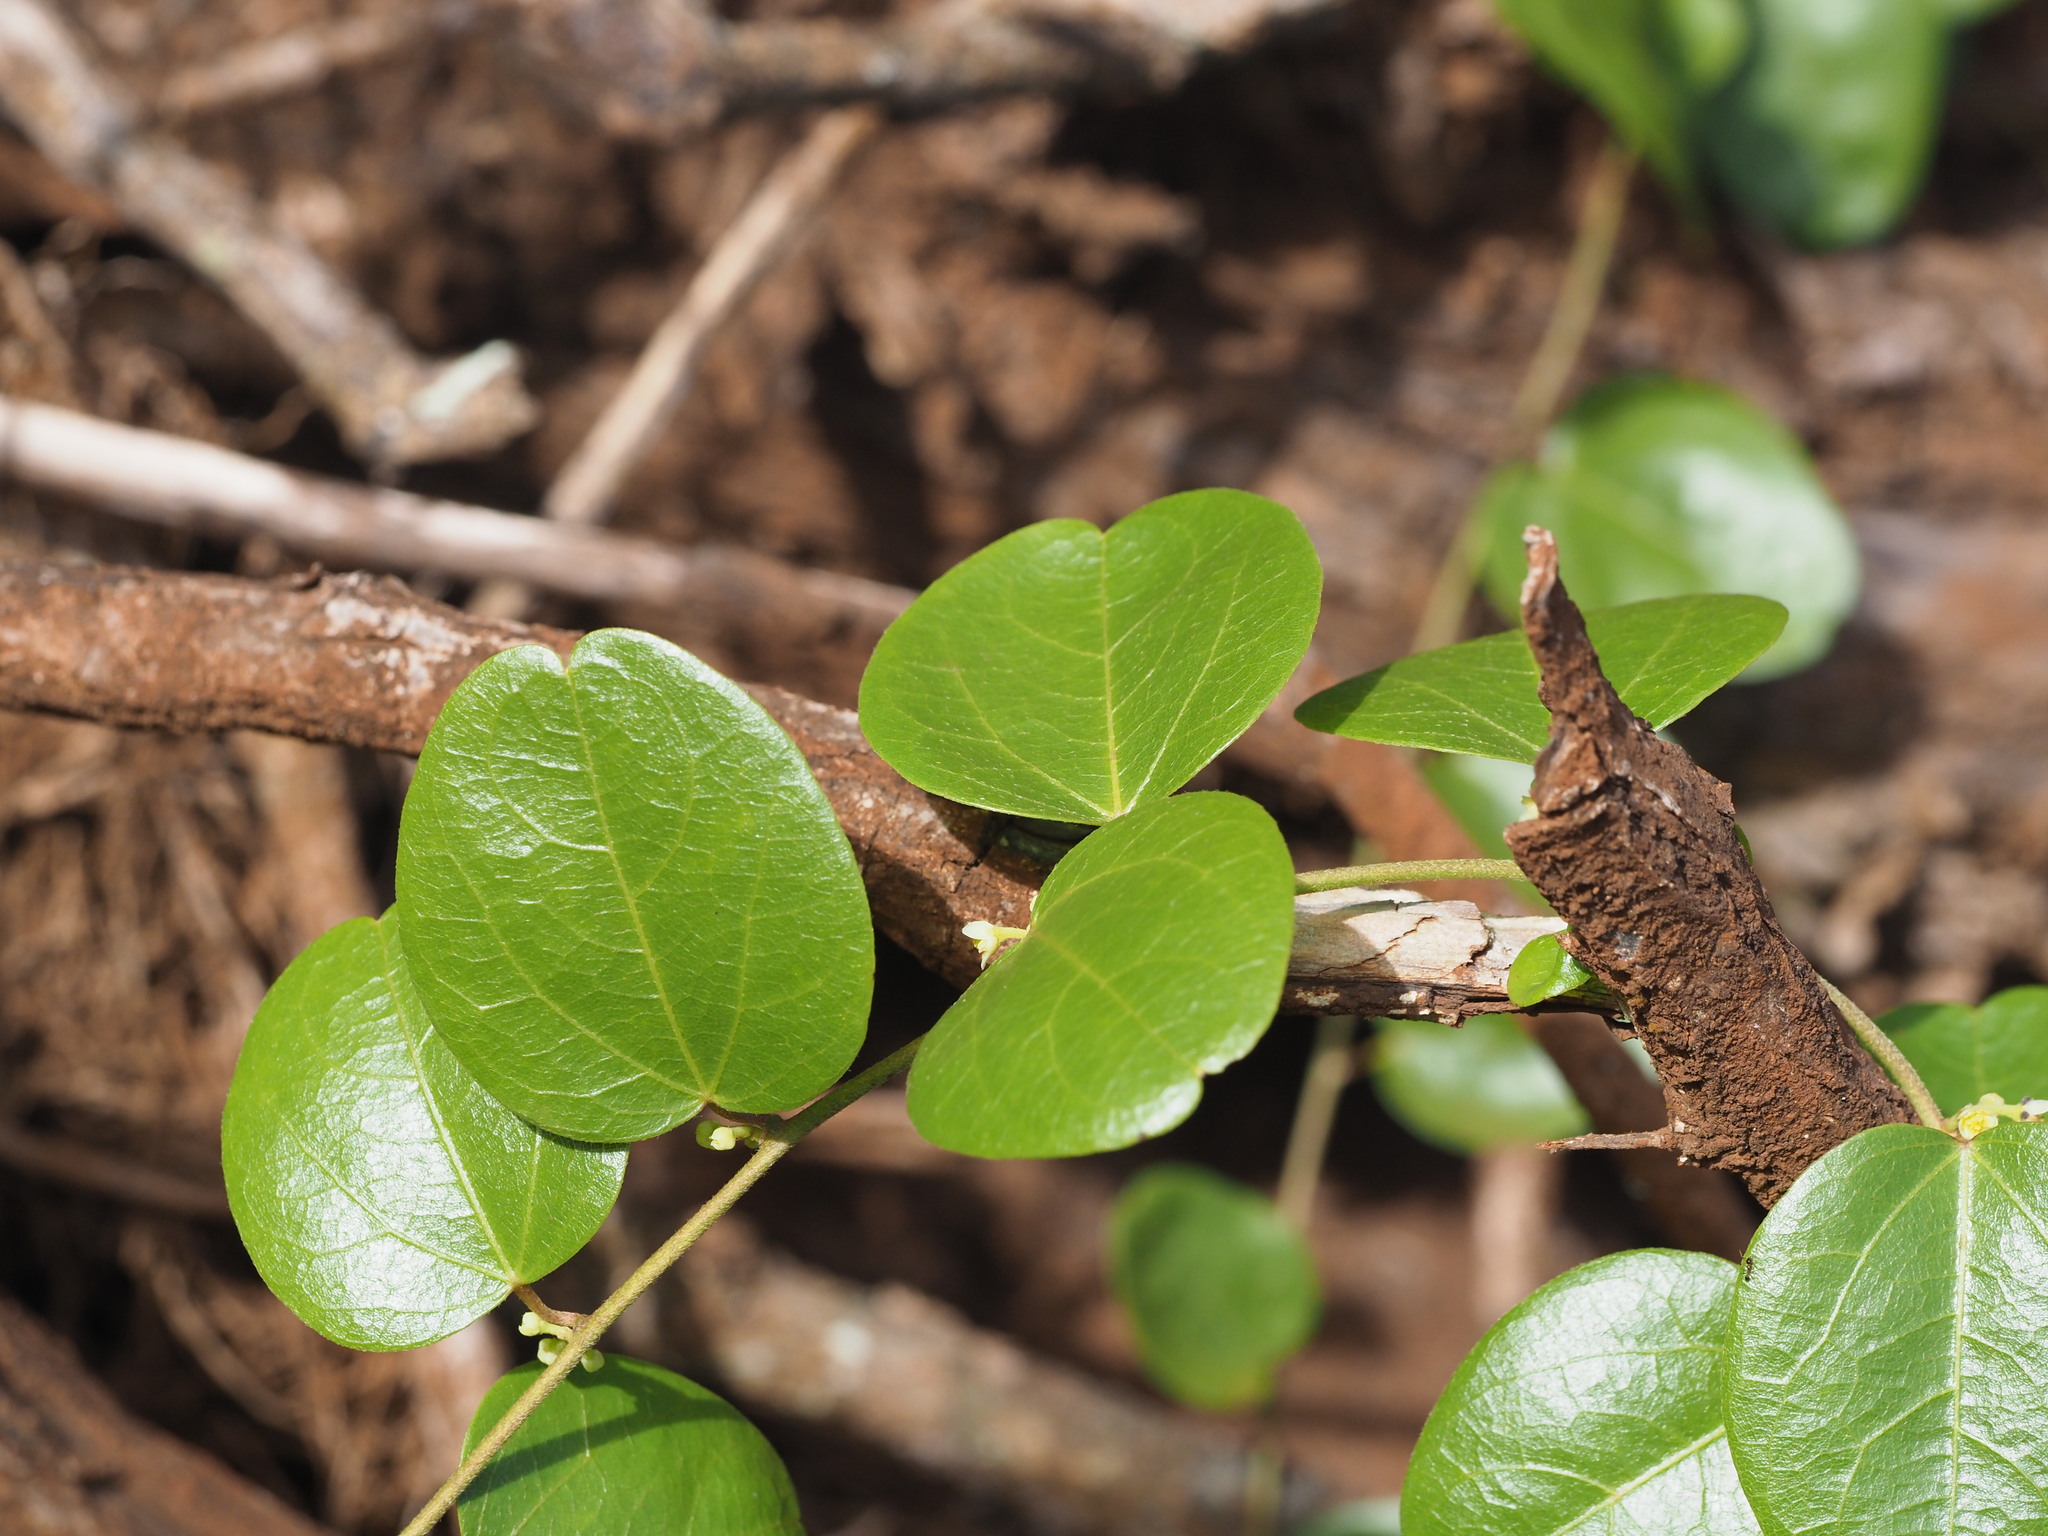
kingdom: Plantae
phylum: Tracheophyta
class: Magnoliopsida
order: Ranunculales
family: Menispermaceae
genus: Cocculus
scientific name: Cocculus orbiculatus
